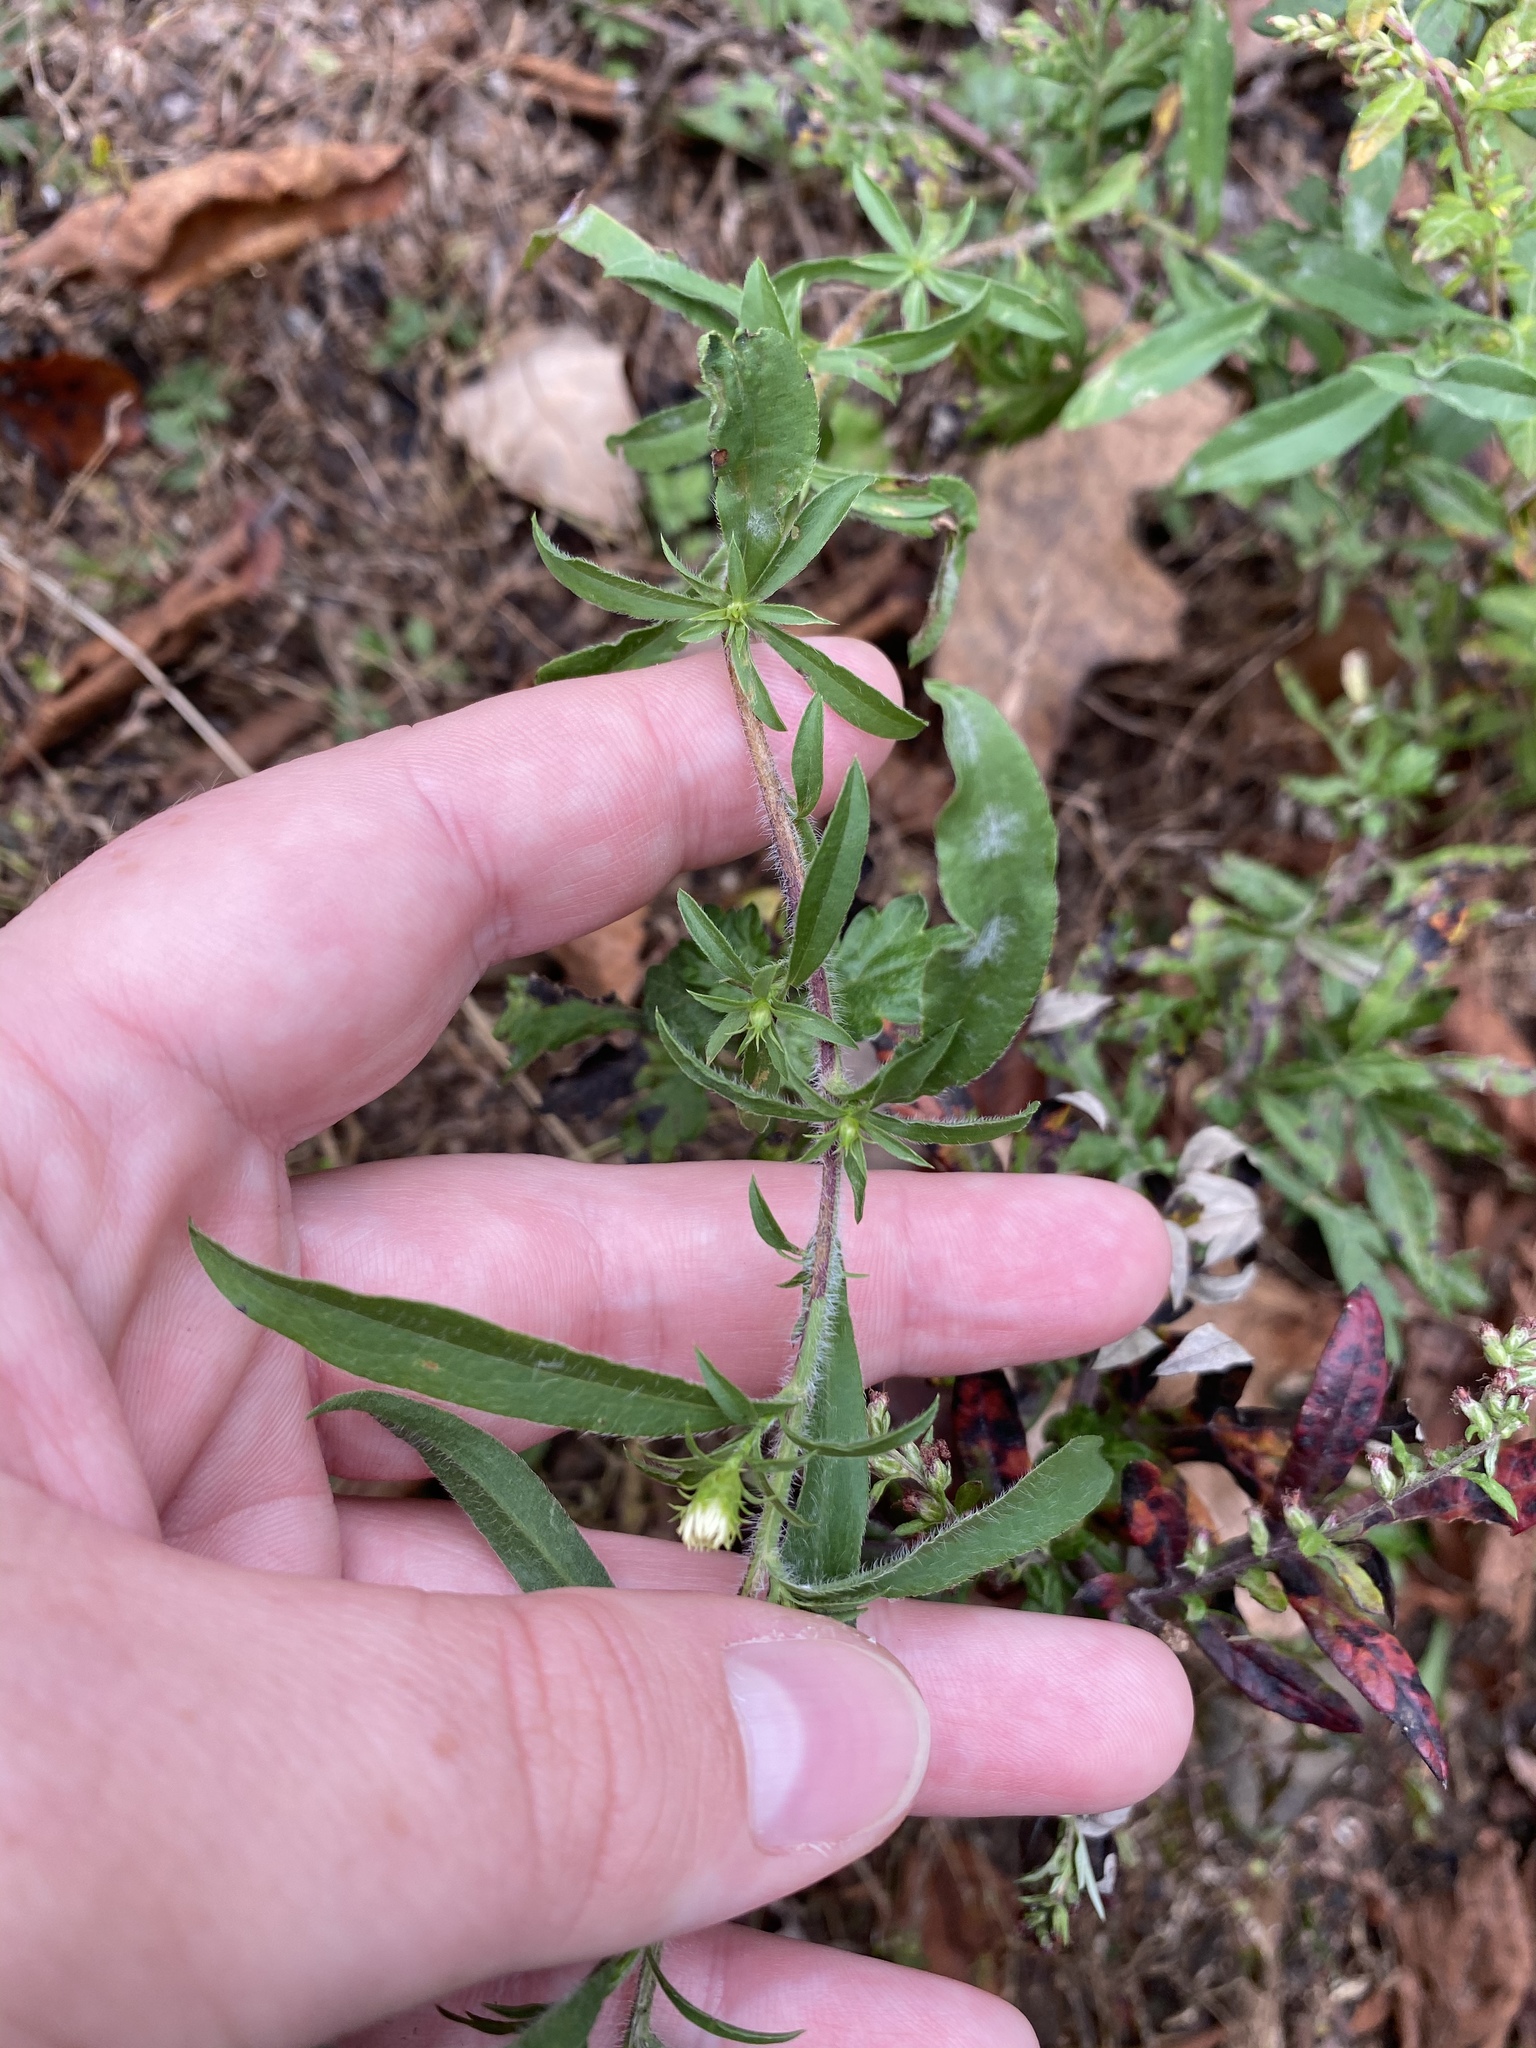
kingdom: Plantae
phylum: Tracheophyta
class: Magnoliopsida
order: Asterales
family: Asteraceae
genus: Symphyotrichum
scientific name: Symphyotrichum pilosum
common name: Awl aster
